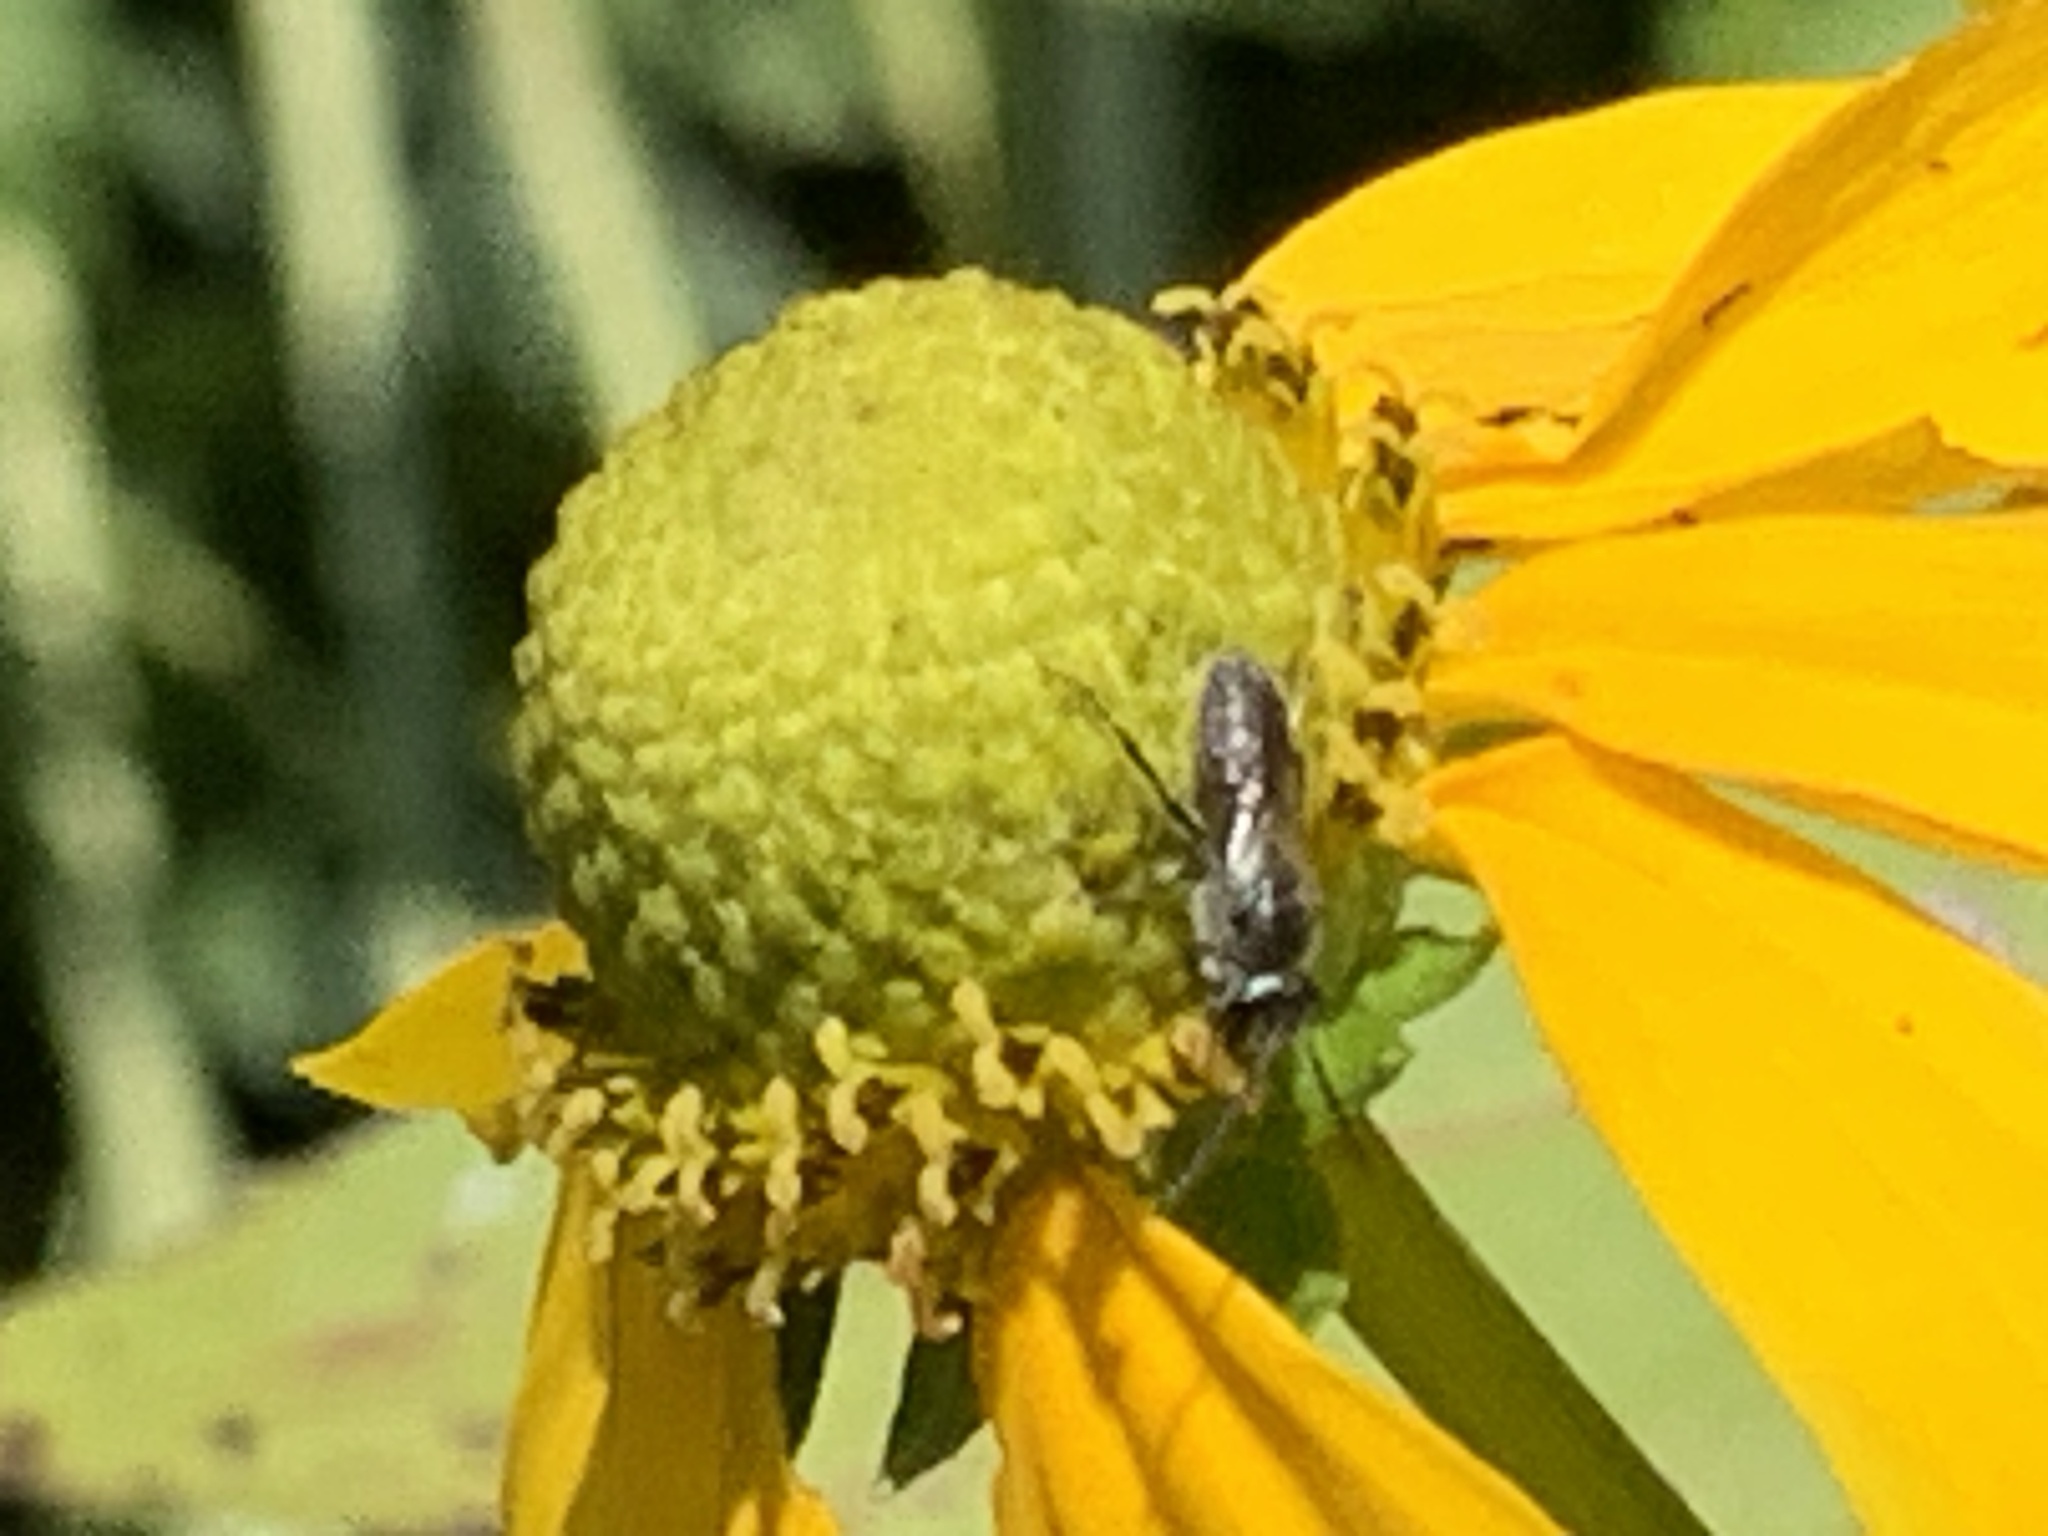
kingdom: Animalia
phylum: Arthropoda
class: Insecta
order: Hymenoptera
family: Halictidae
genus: Dialictus
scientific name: Dialictus
